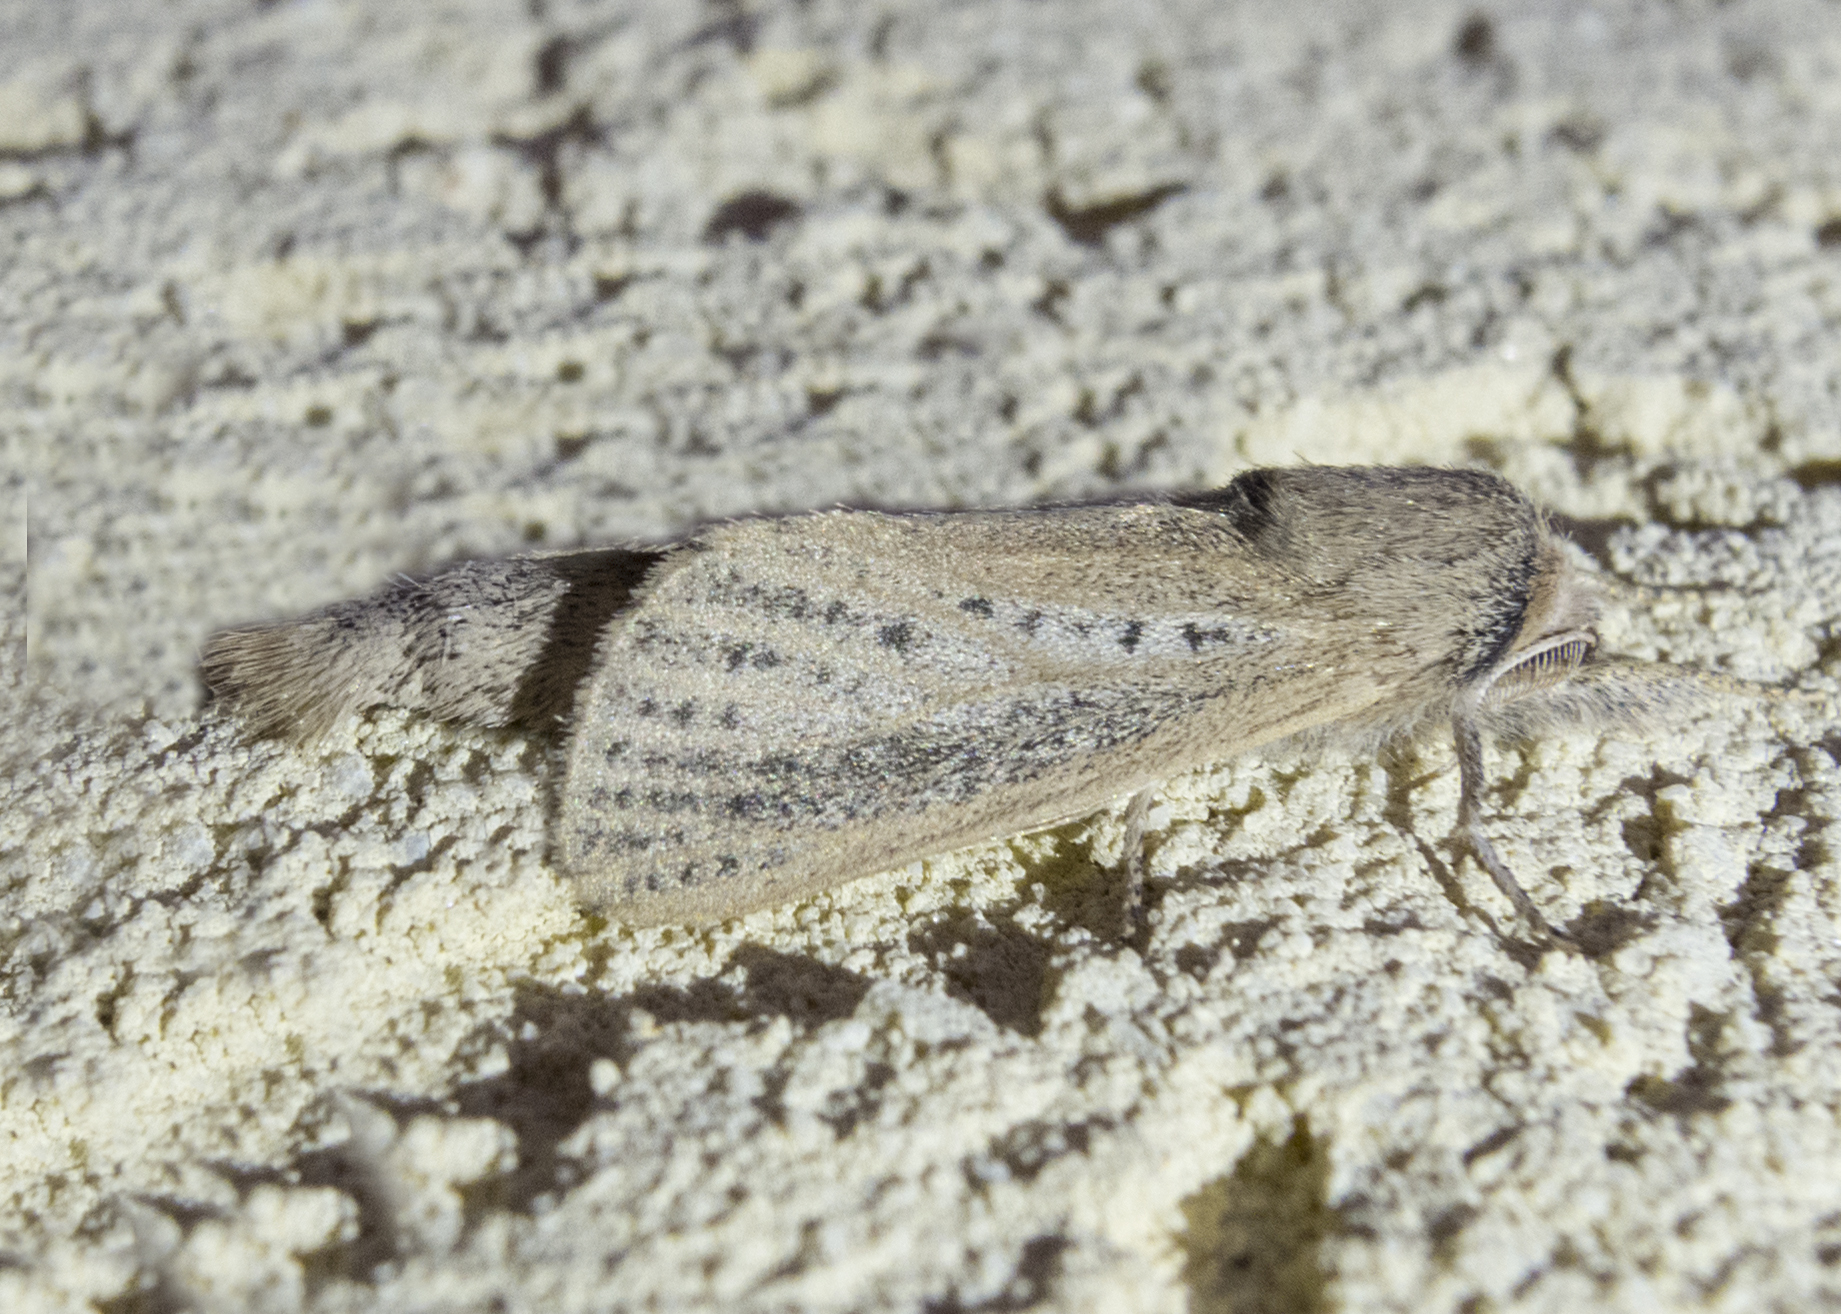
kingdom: Animalia
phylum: Arthropoda
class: Insecta
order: Lepidoptera
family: Cossidae
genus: Phragmataecia
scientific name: Phragmataecia castaneae
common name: Reed leopard
